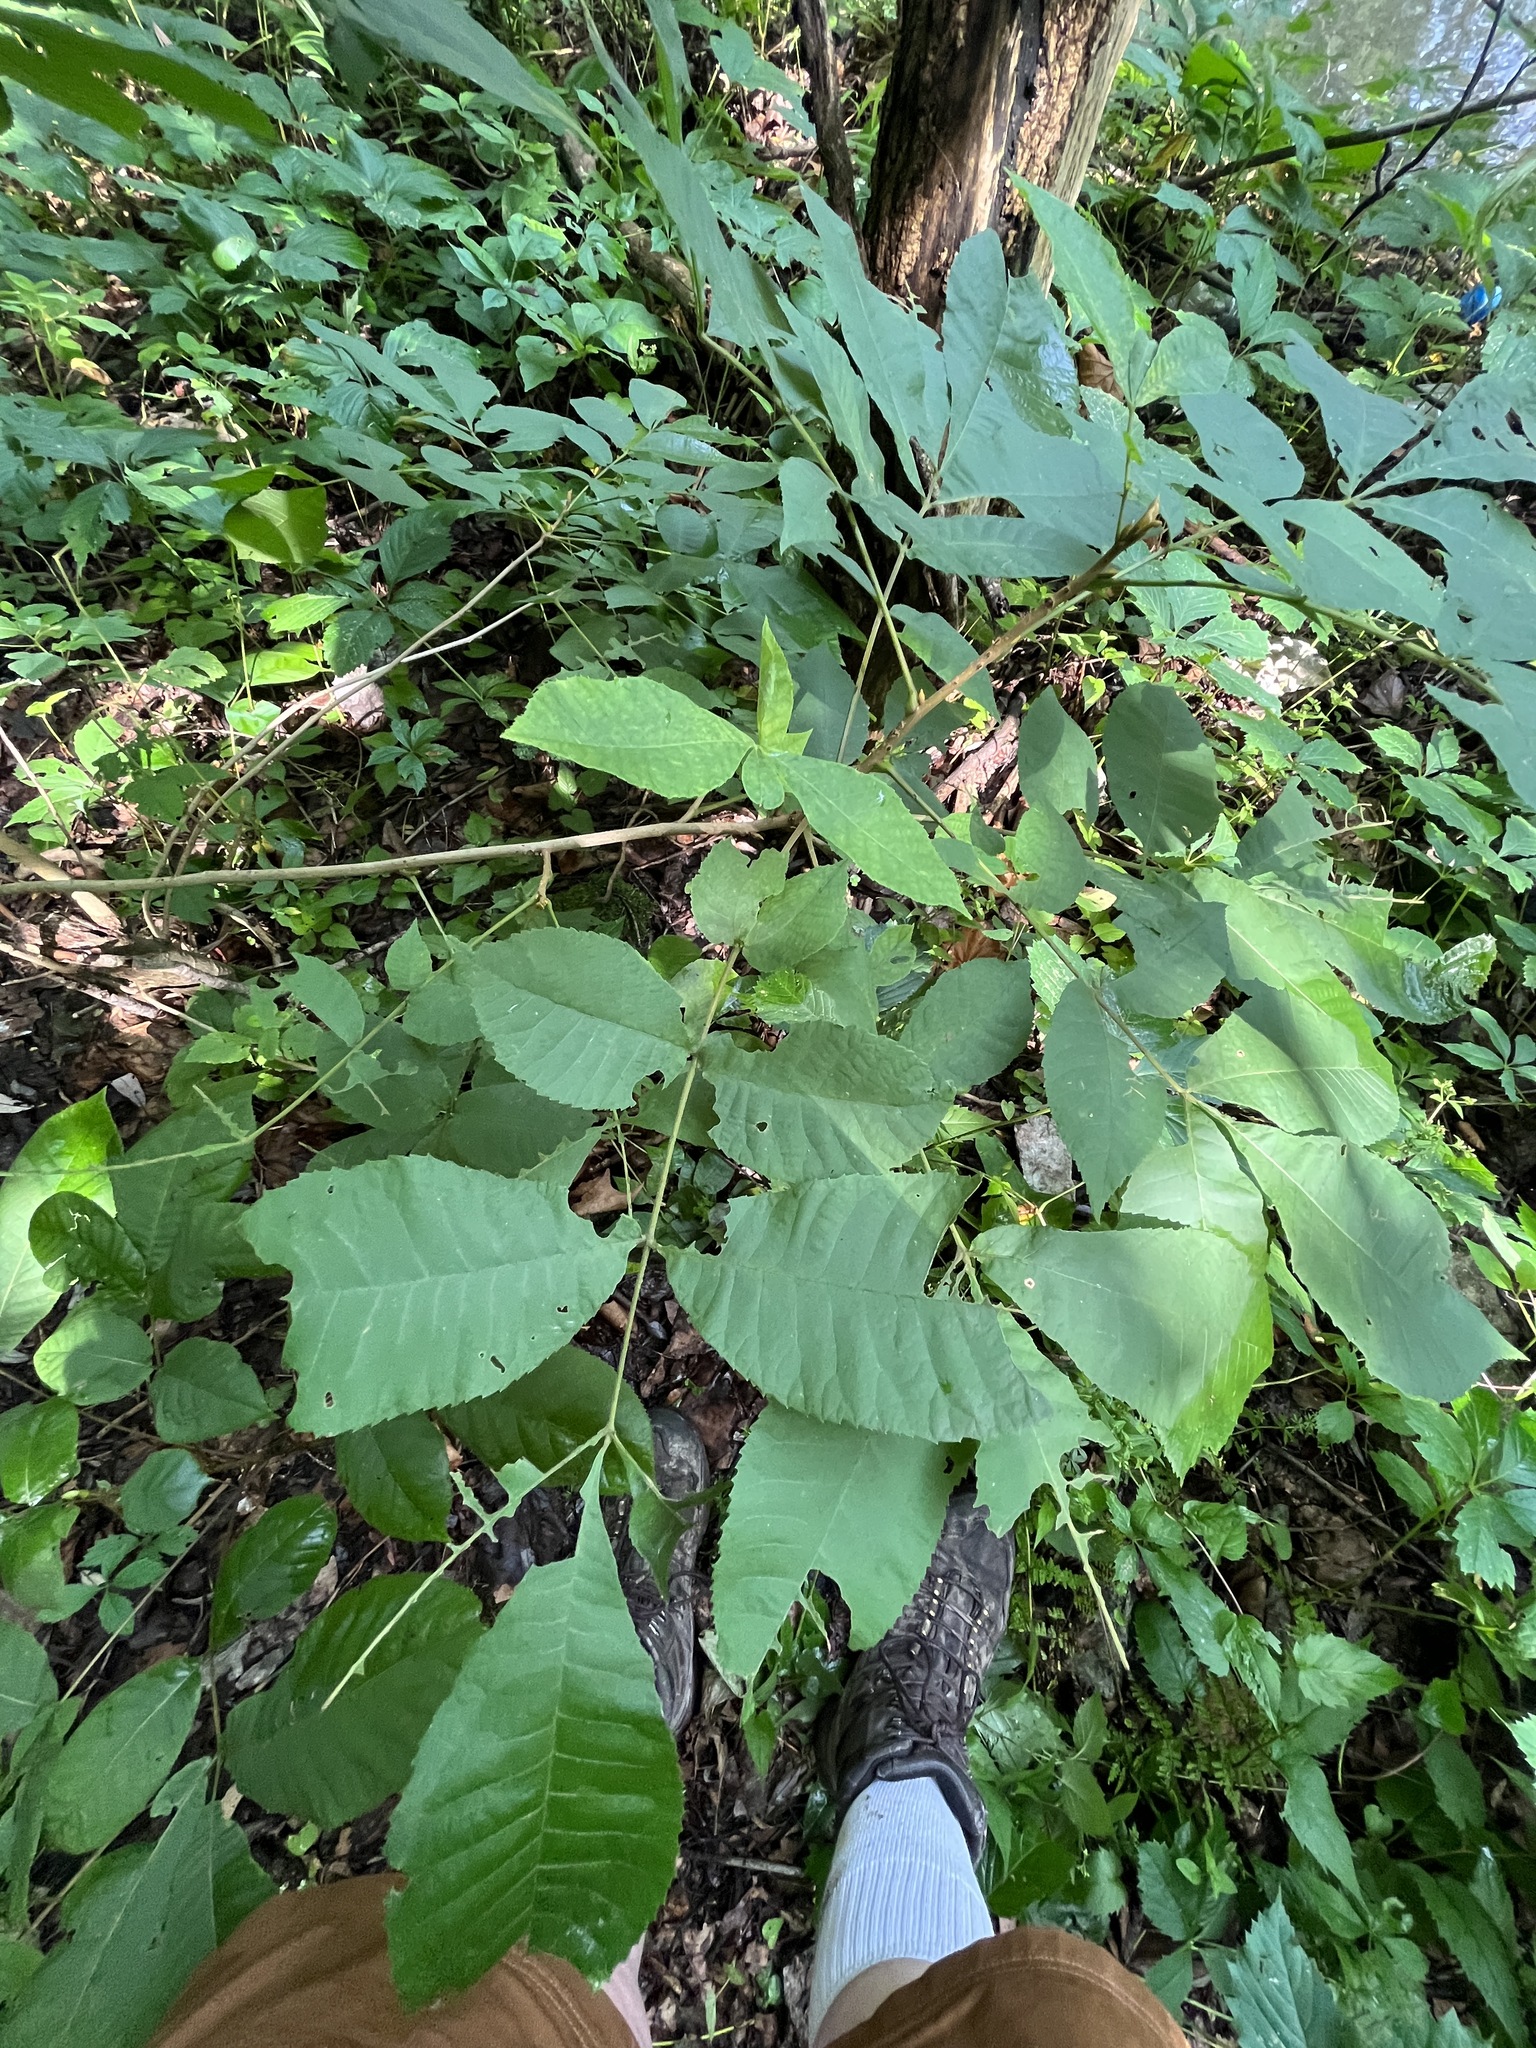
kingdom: Plantae
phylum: Tracheophyta
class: Magnoliopsida
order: Fagales
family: Juglandaceae
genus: Carya
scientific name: Carya cordiformis
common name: Bitternut hickory
